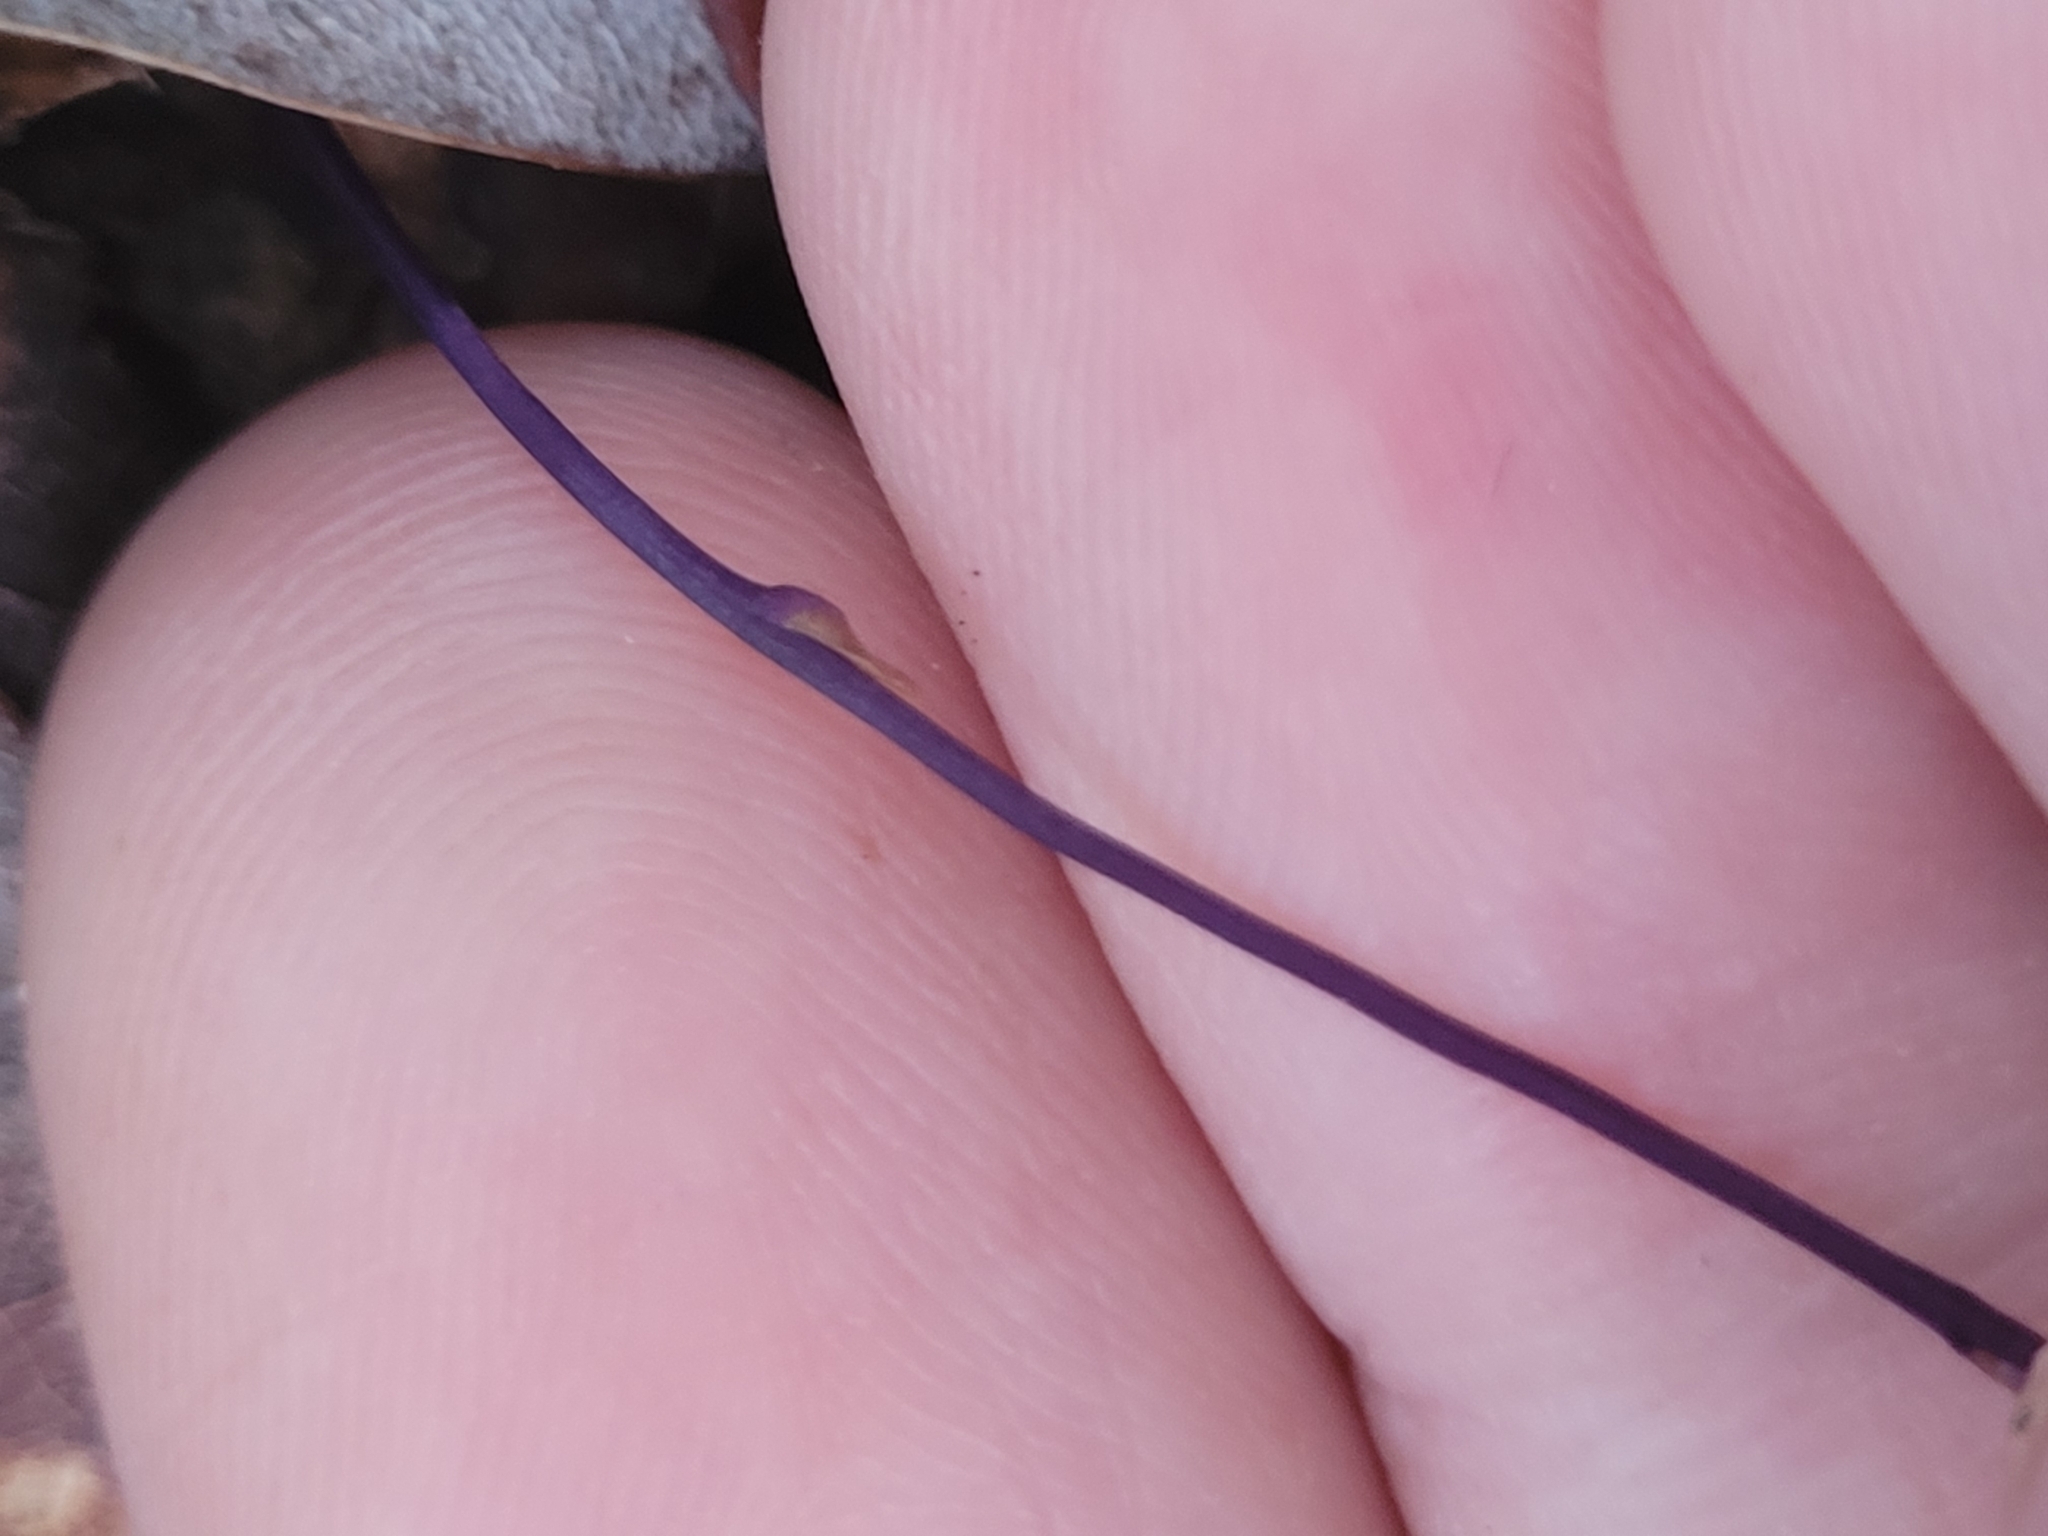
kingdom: Plantae
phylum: Tracheophyta
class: Liliopsida
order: Dioscoreales
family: Burmanniaceae
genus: Apteria
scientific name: Apteria aphylla
